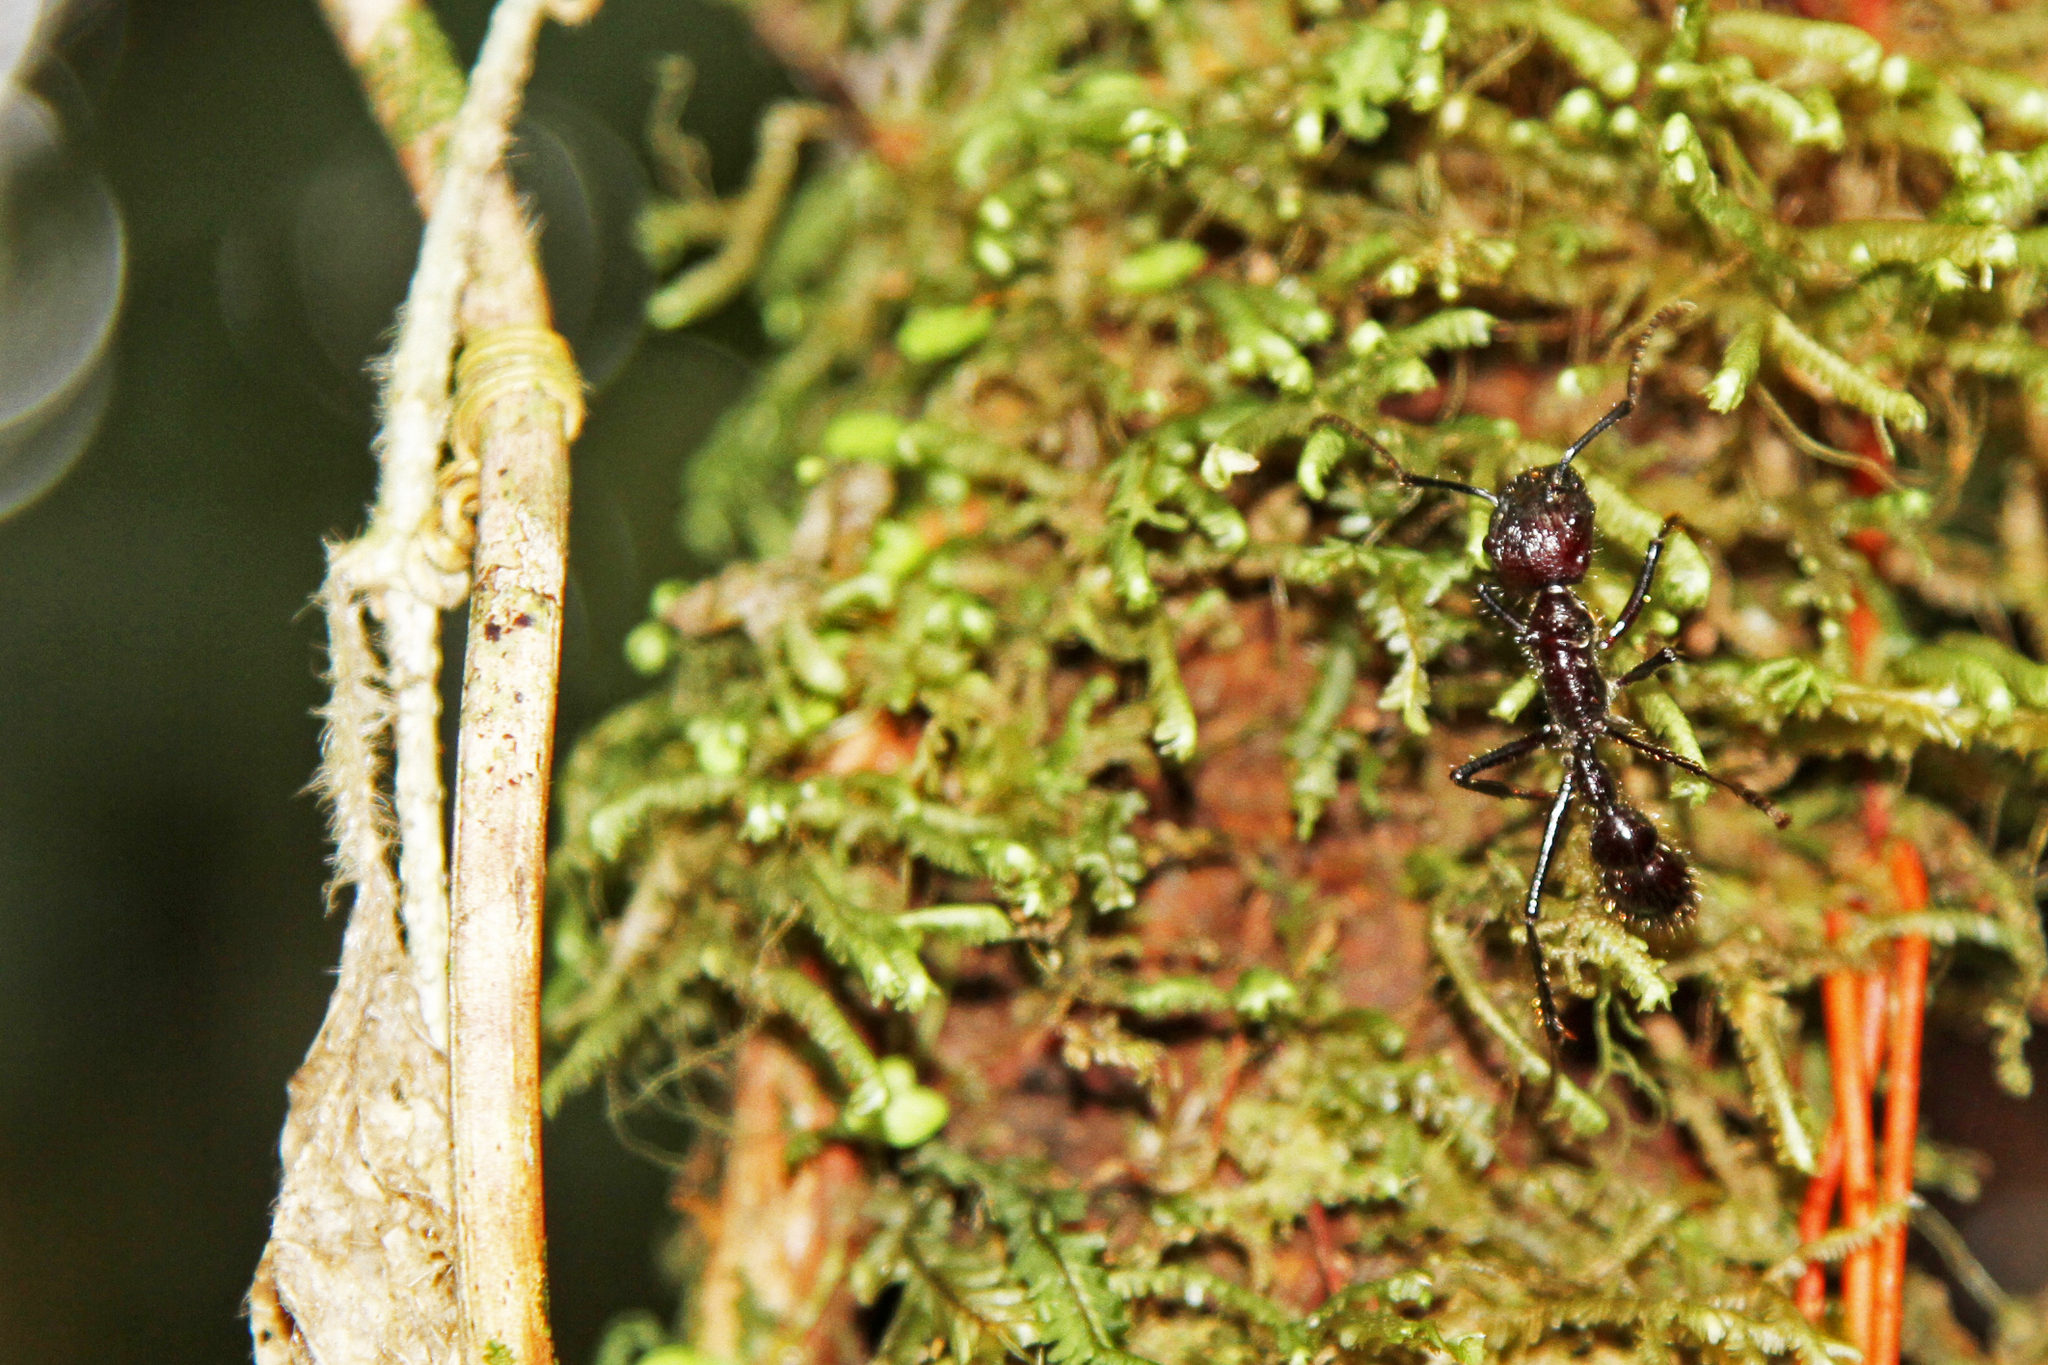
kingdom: Animalia
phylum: Arthropoda
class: Insecta
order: Hymenoptera
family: Formicidae
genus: Paraponera
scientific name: Paraponera clavata
